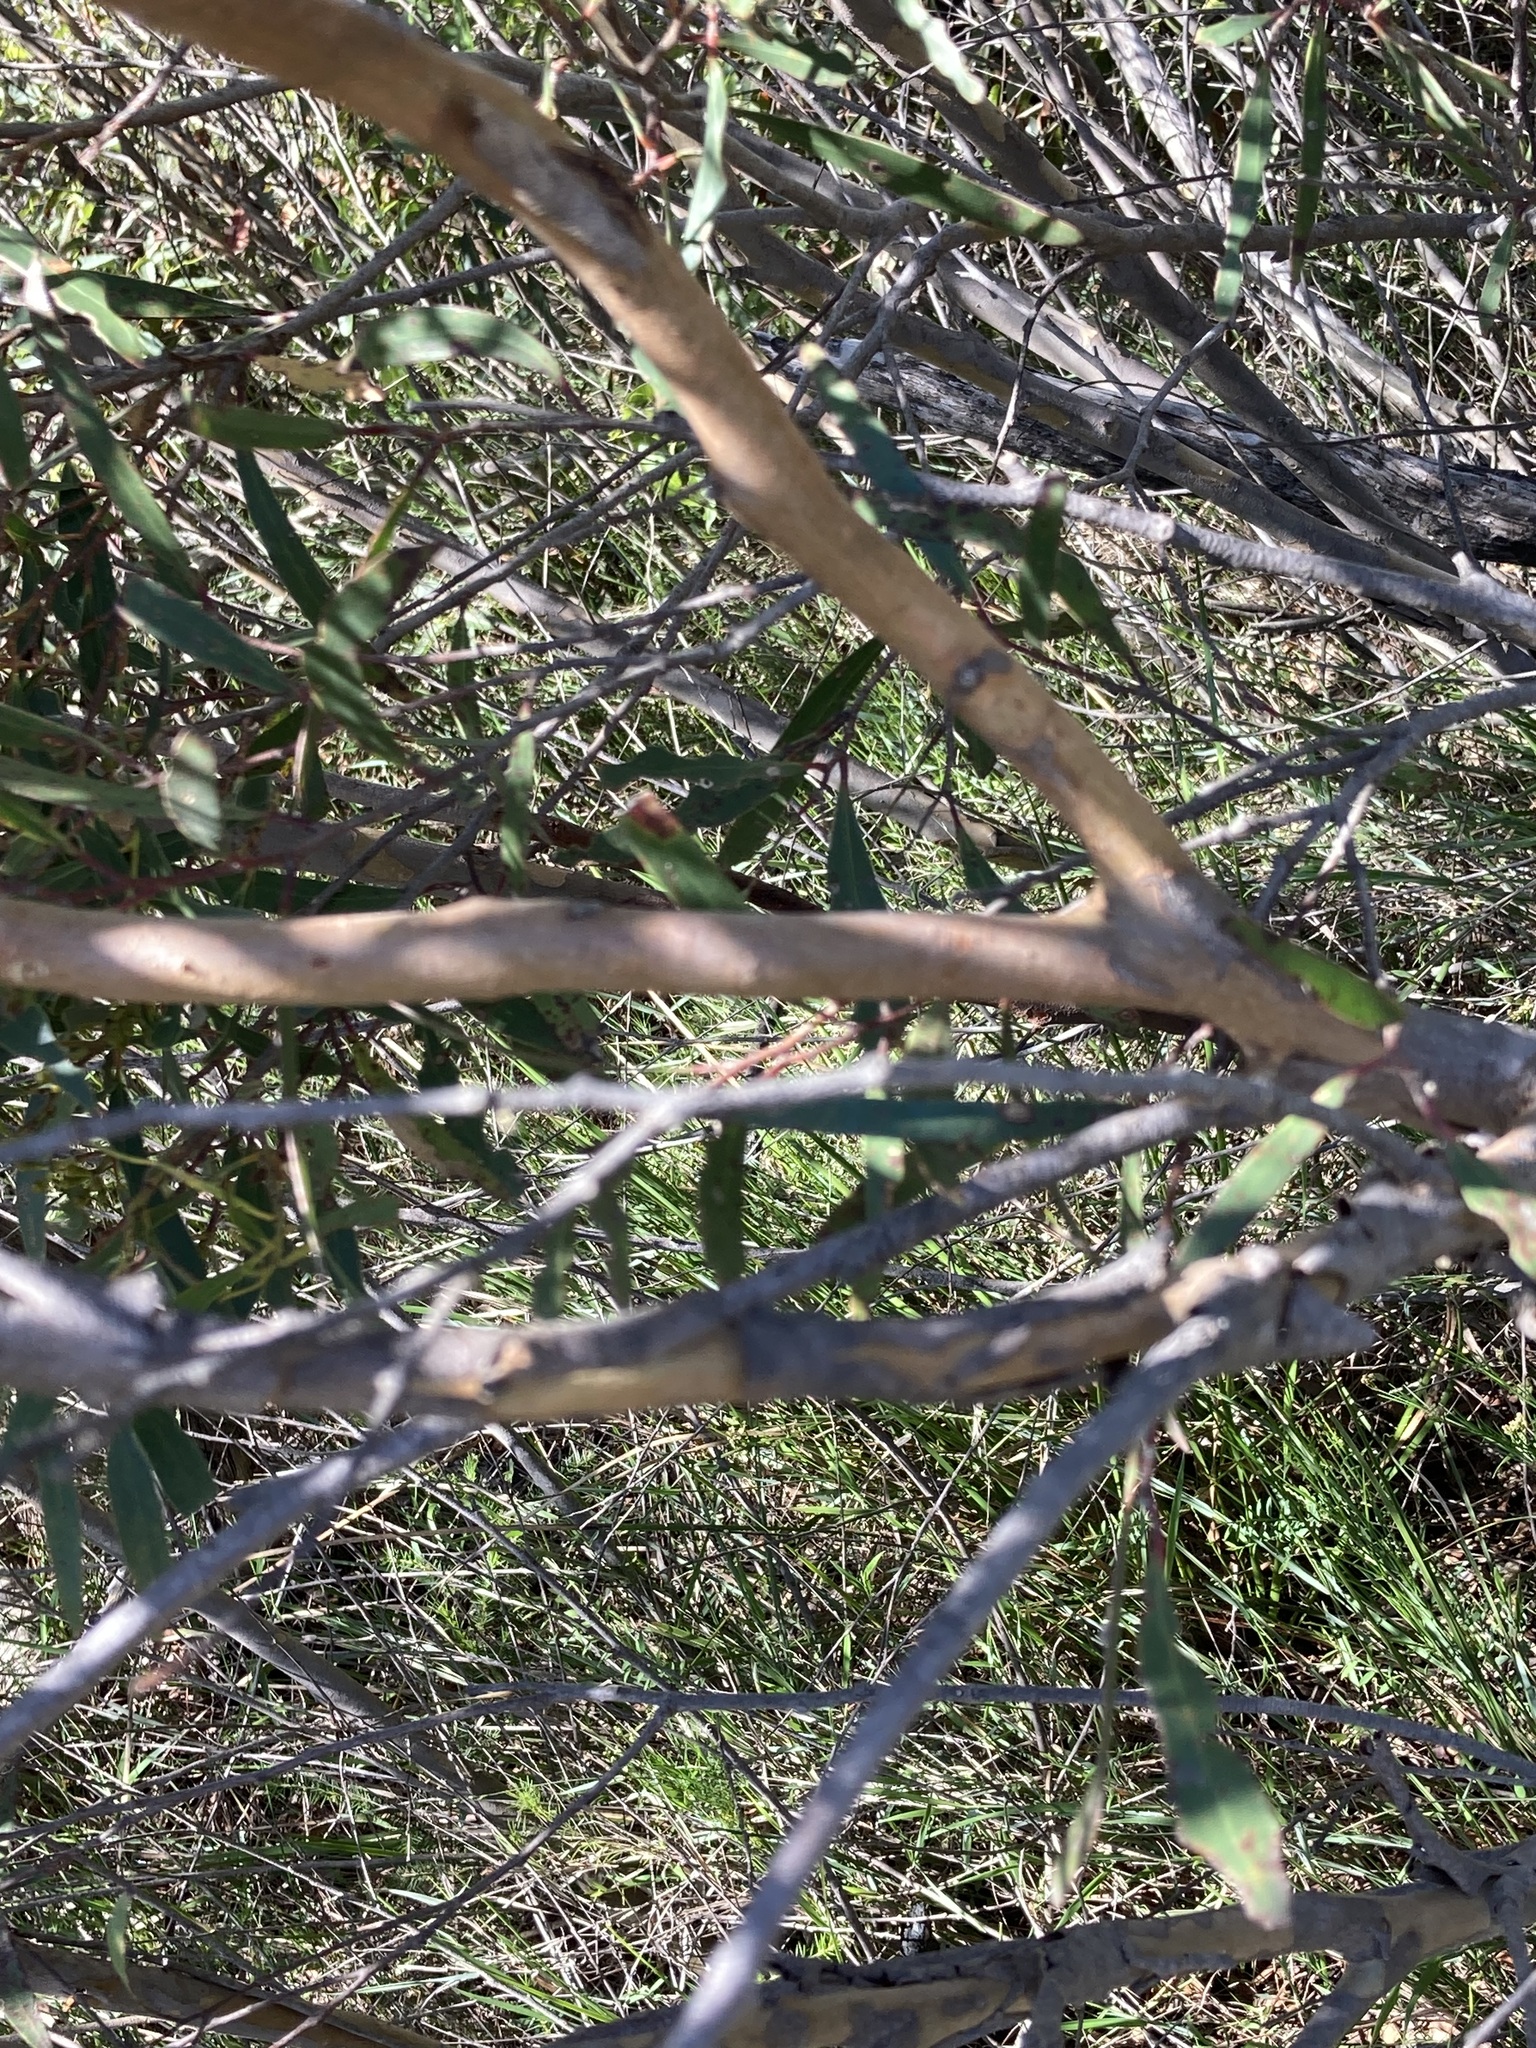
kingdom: Plantae
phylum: Tracheophyta
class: Magnoliopsida
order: Myrtales
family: Myrtaceae
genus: Eucalyptus
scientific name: Eucalyptus stricta
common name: Blue-mountain-malle-ash
